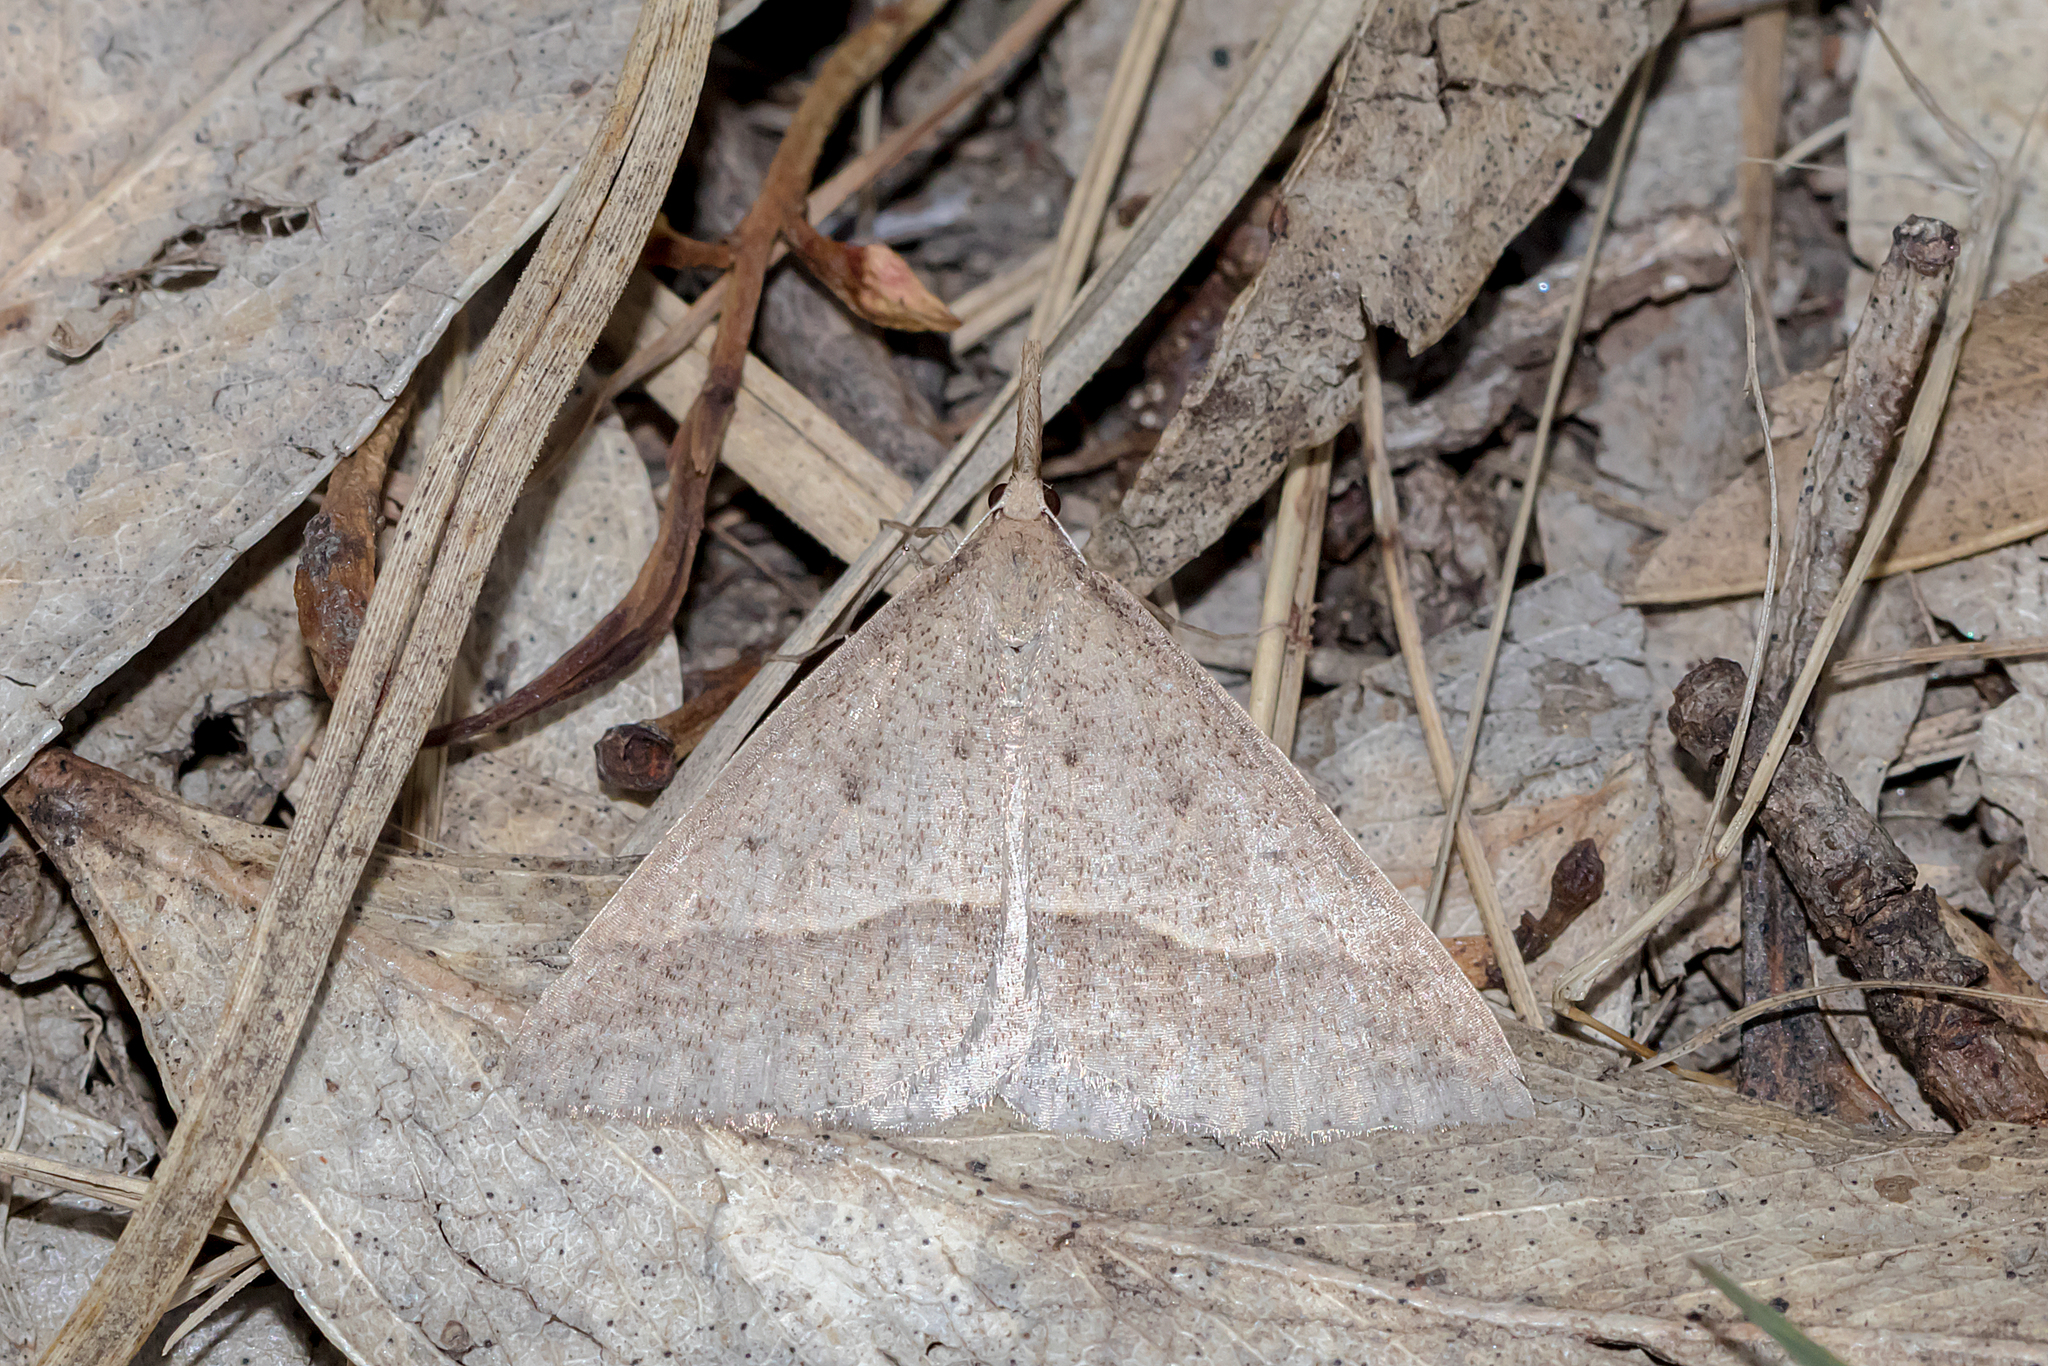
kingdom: Animalia
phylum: Arthropoda
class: Insecta
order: Lepidoptera
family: Geometridae
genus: Epidesmia
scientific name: Epidesmia hypenaria
